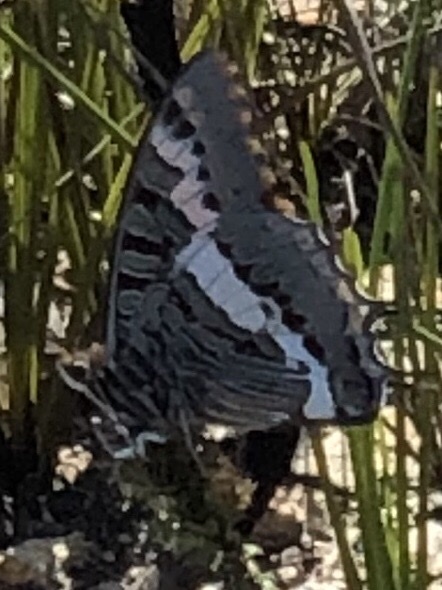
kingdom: Animalia
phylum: Arthropoda
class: Insecta
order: Lepidoptera
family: Nymphalidae
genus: Charaxes
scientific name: Charaxes pelias
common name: Protea charaxes
